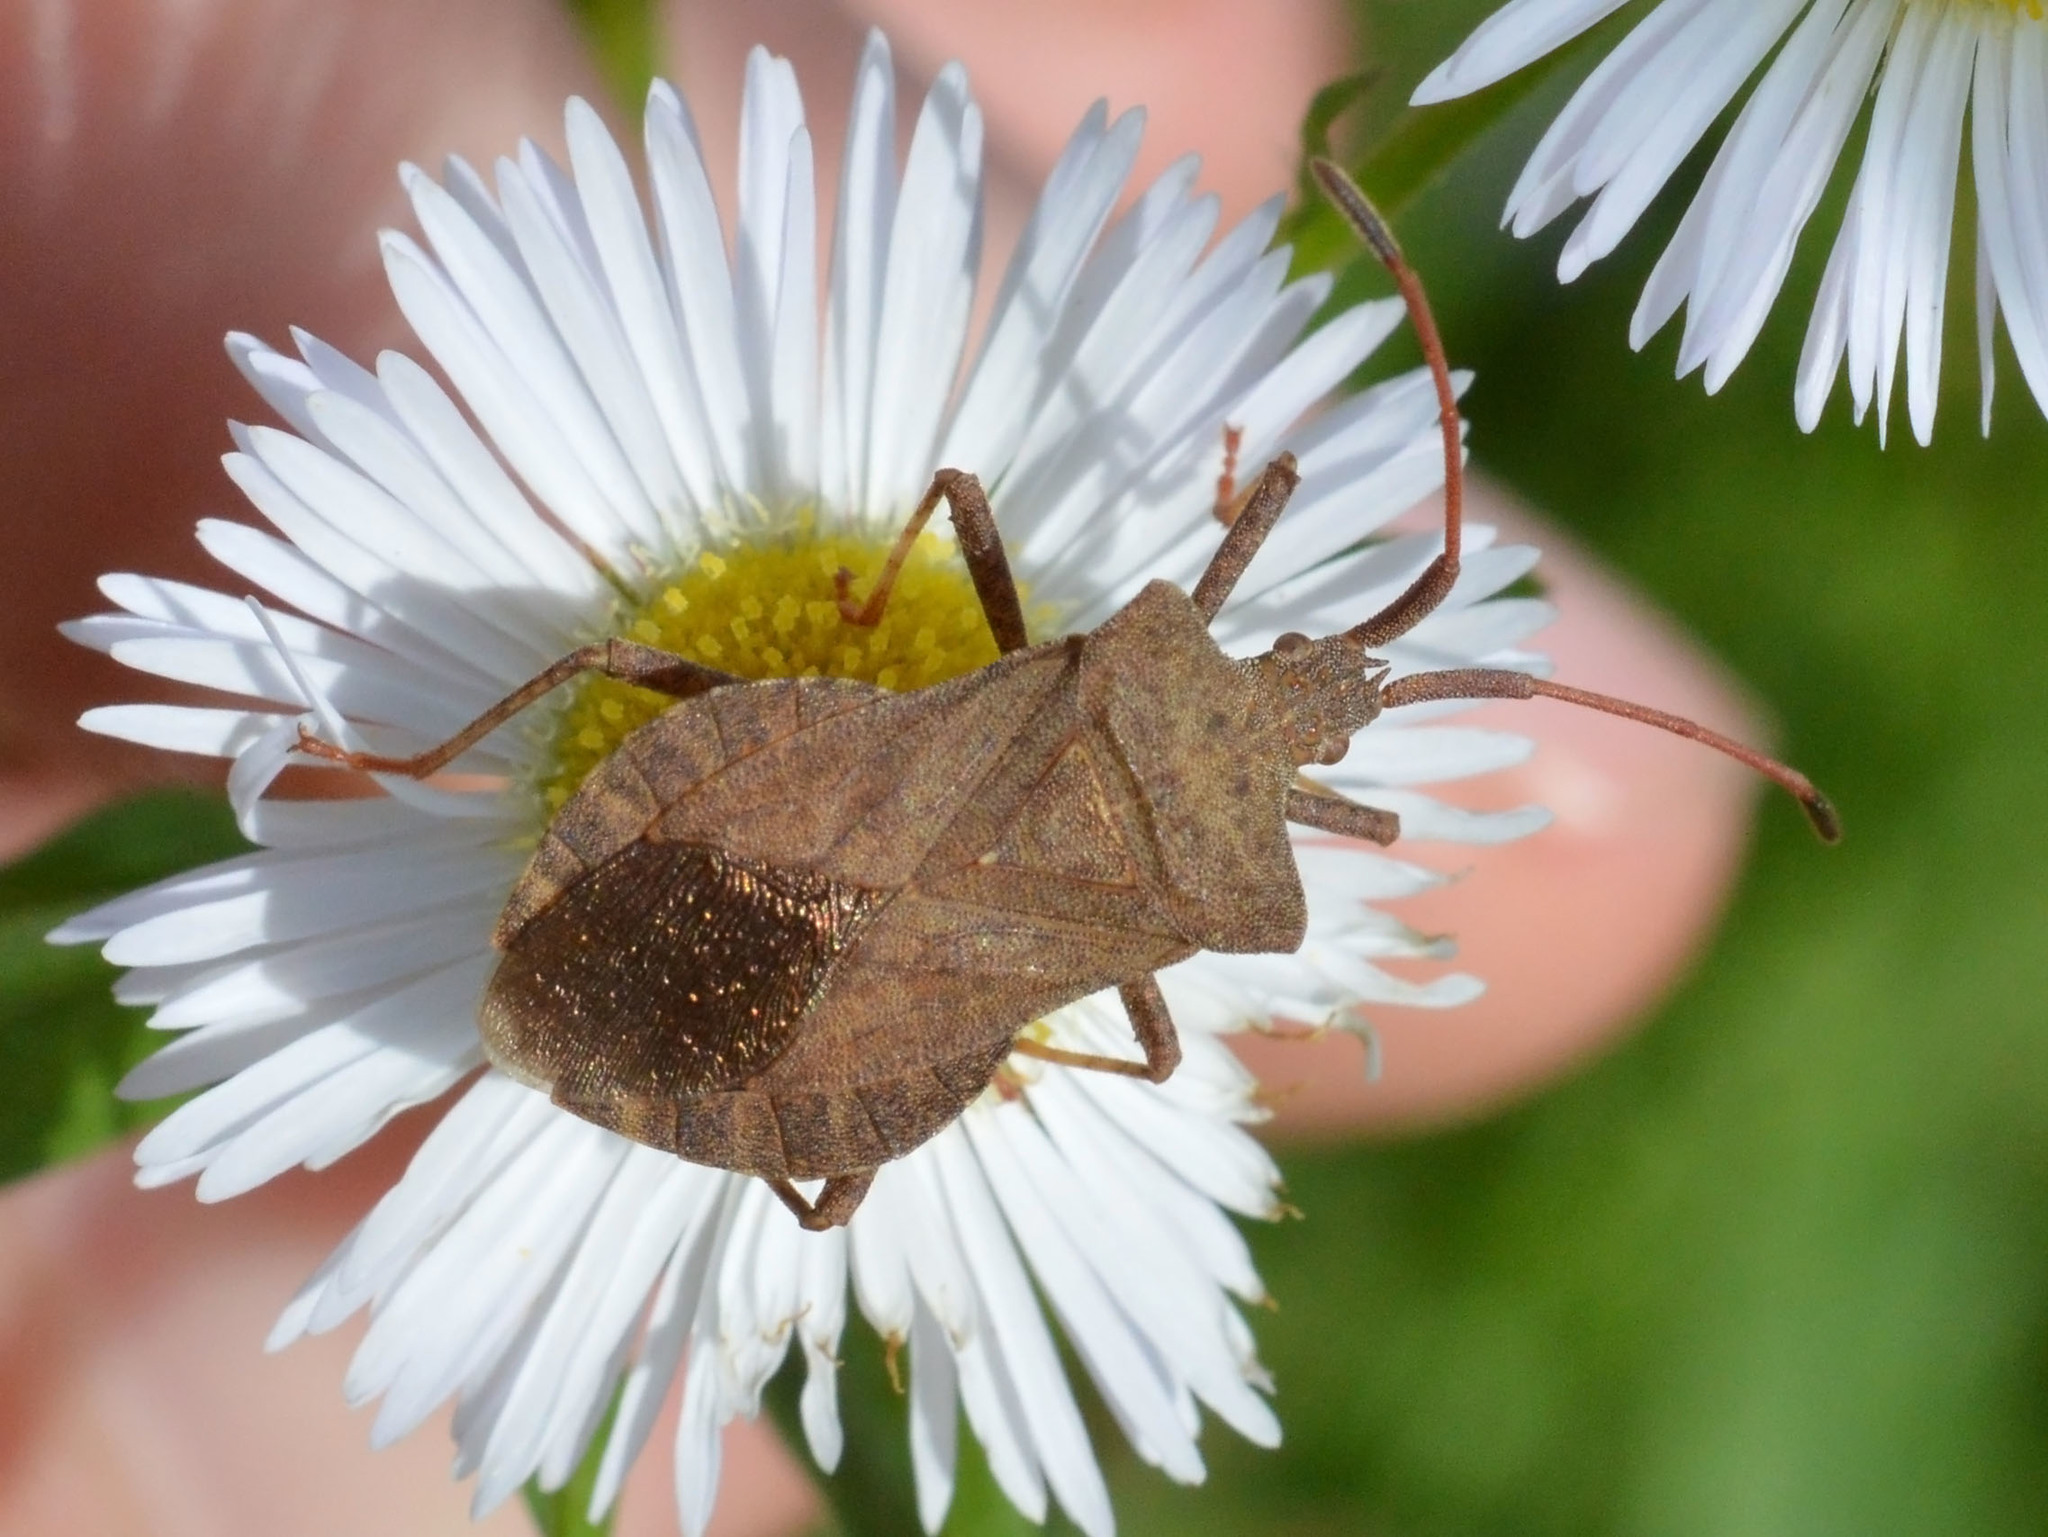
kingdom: Animalia
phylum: Arthropoda
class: Insecta
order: Hemiptera
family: Coreidae
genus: Coreus
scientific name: Coreus marginatus
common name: Dock bug
